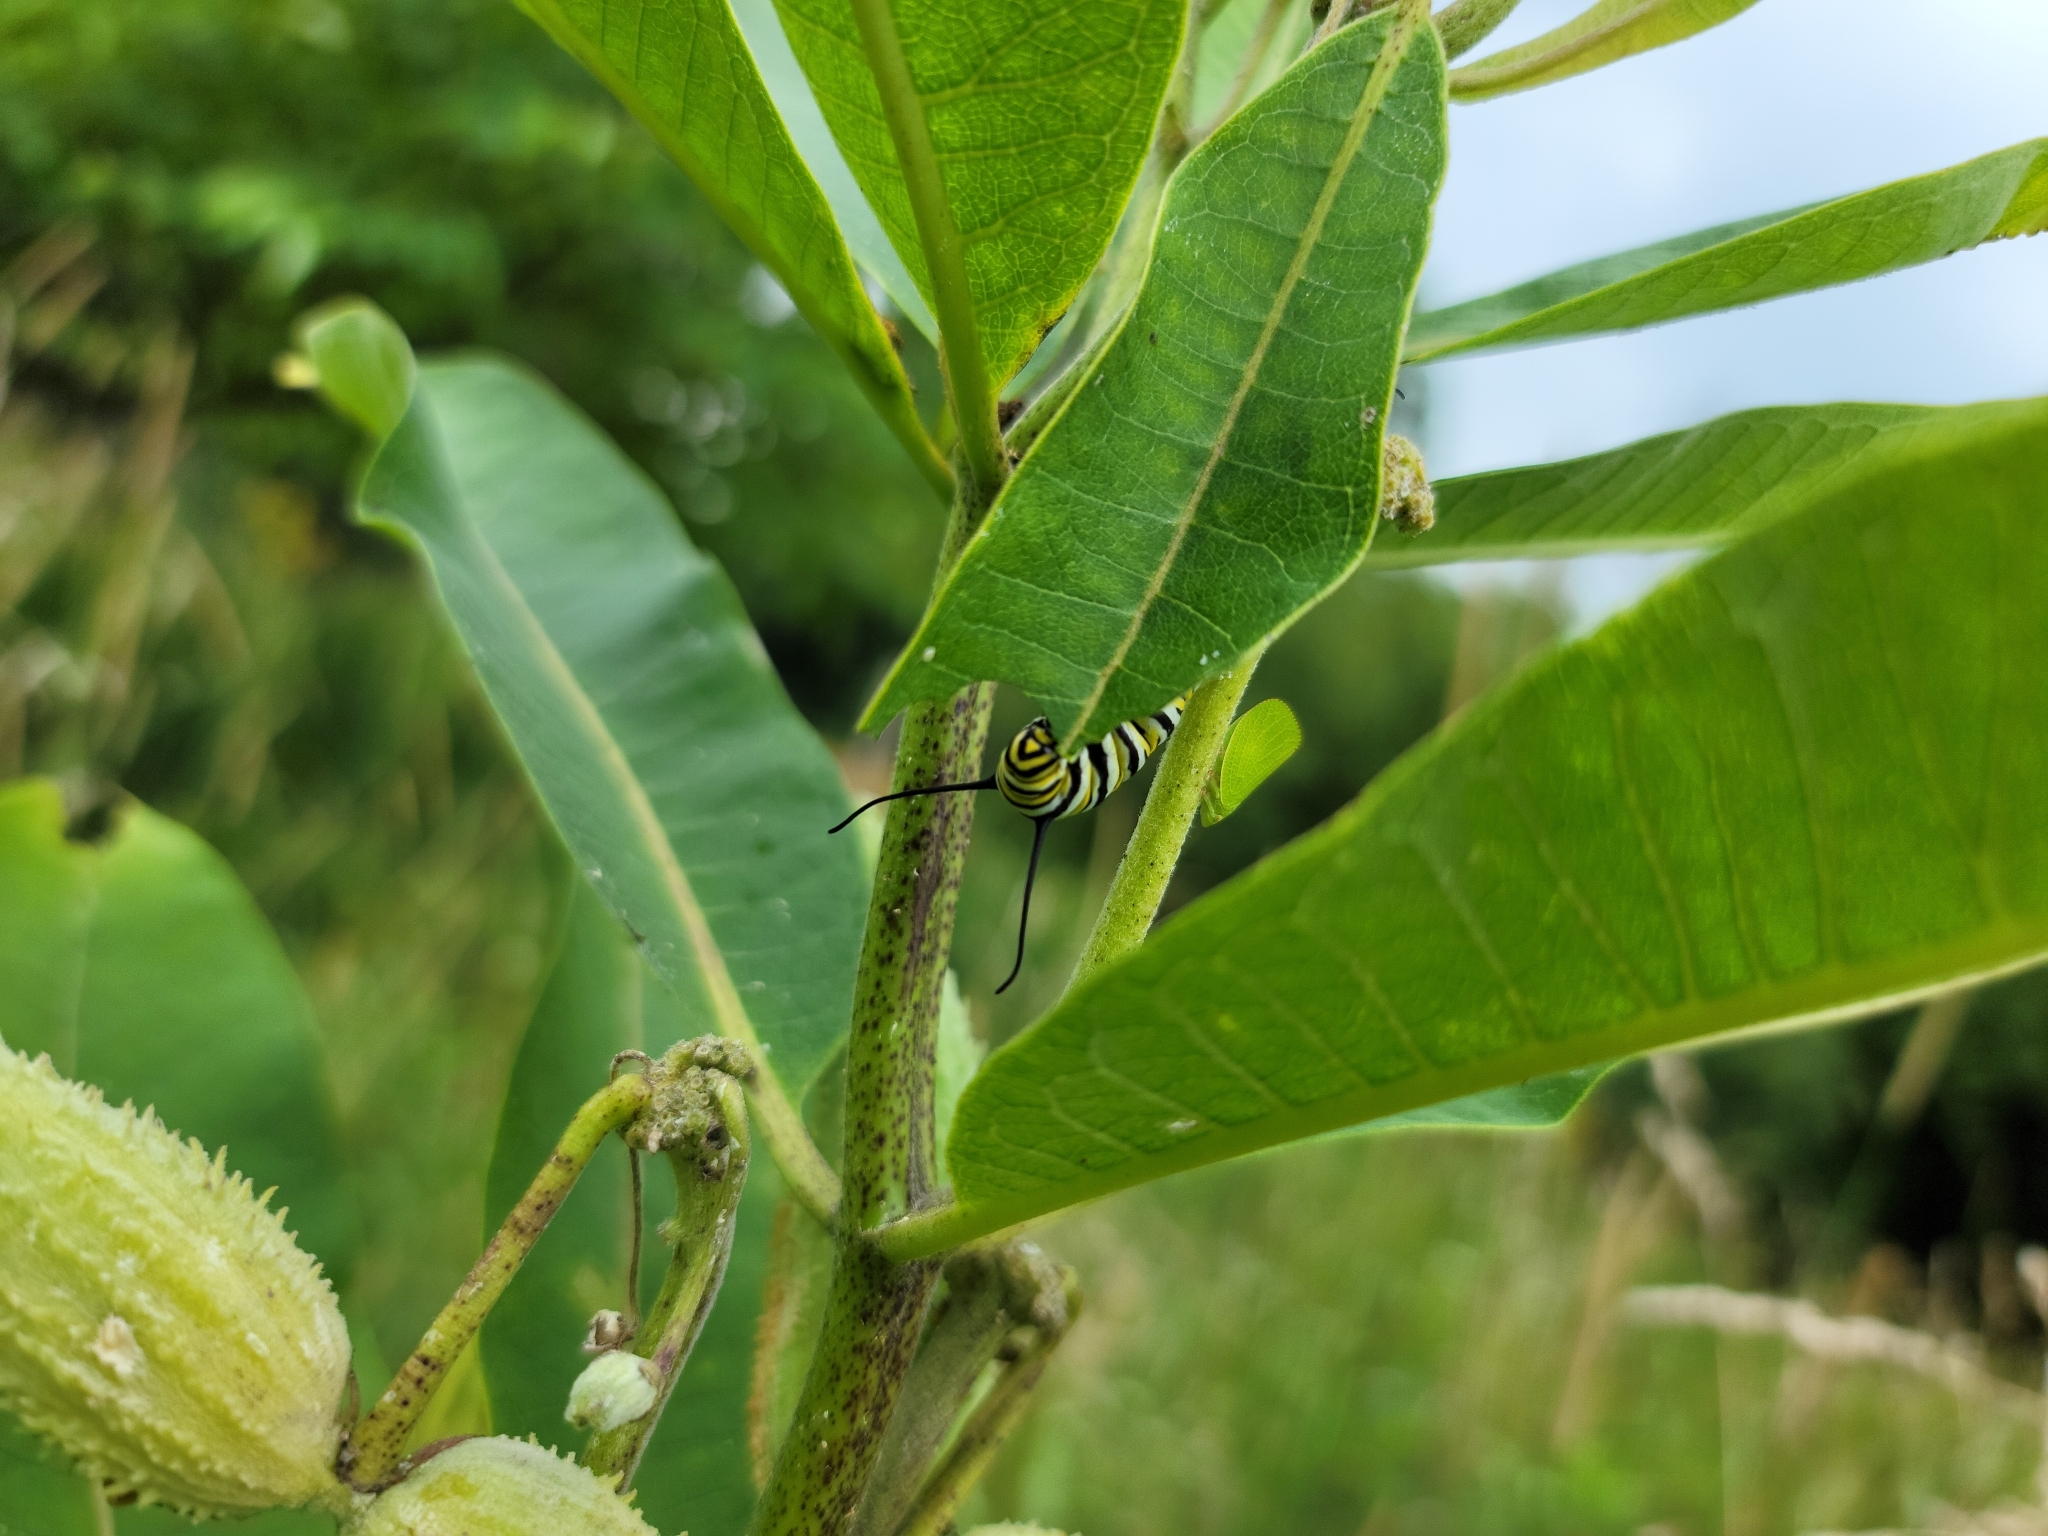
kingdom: Animalia
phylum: Arthropoda
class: Insecta
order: Lepidoptera
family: Nymphalidae
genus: Danaus
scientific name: Danaus plexippus
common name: Monarch
